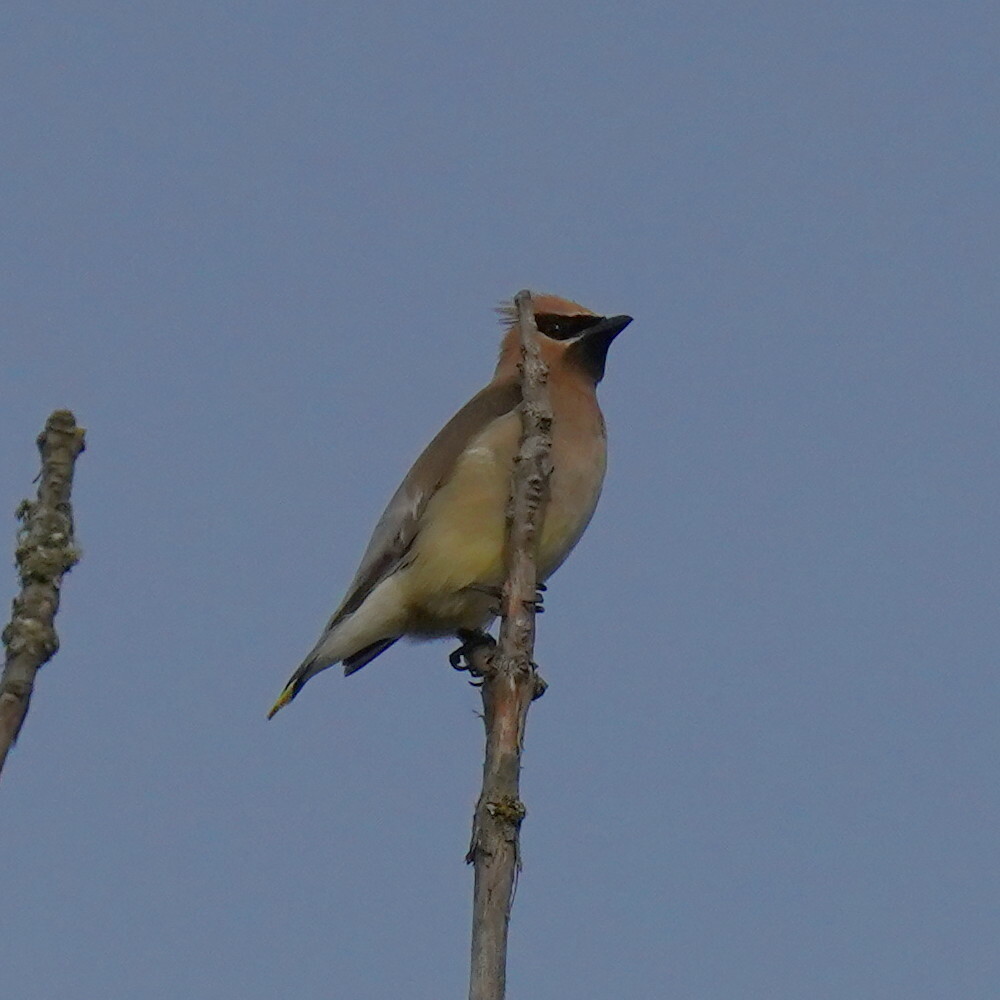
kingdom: Animalia
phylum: Chordata
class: Aves
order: Passeriformes
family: Bombycillidae
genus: Bombycilla
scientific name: Bombycilla cedrorum
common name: Cedar waxwing
